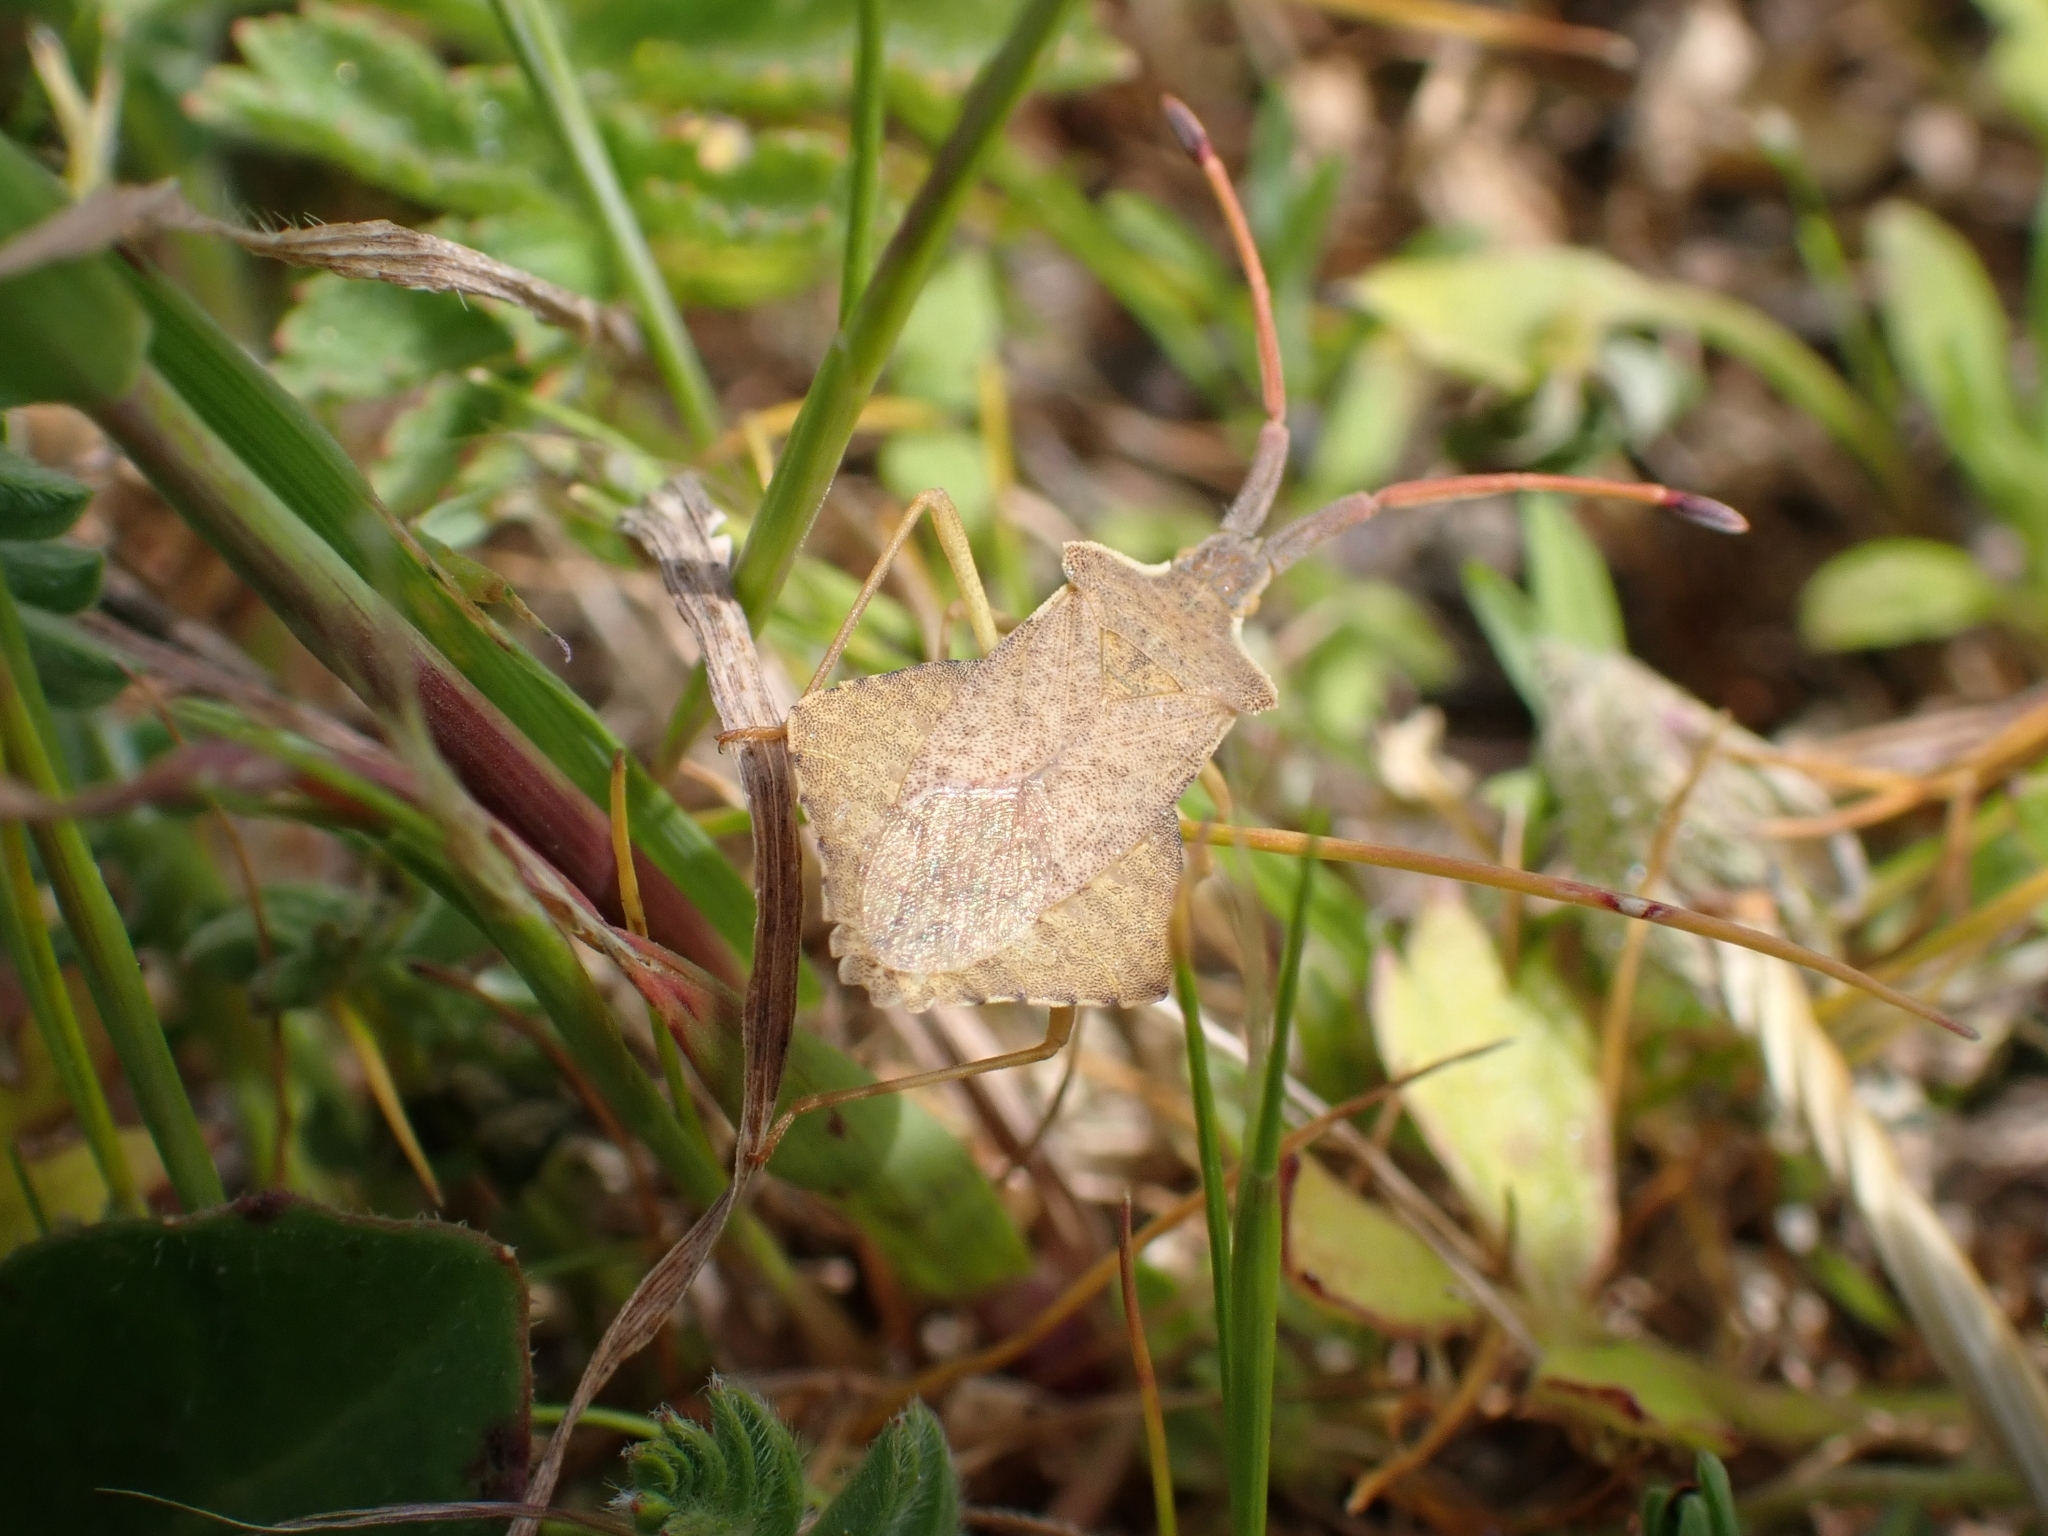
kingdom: Animalia
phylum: Arthropoda
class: Insecta
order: Hemiptera
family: Coreidae
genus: Syromastus
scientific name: Syromastus rhombeus
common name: Rhombic leatherbug
